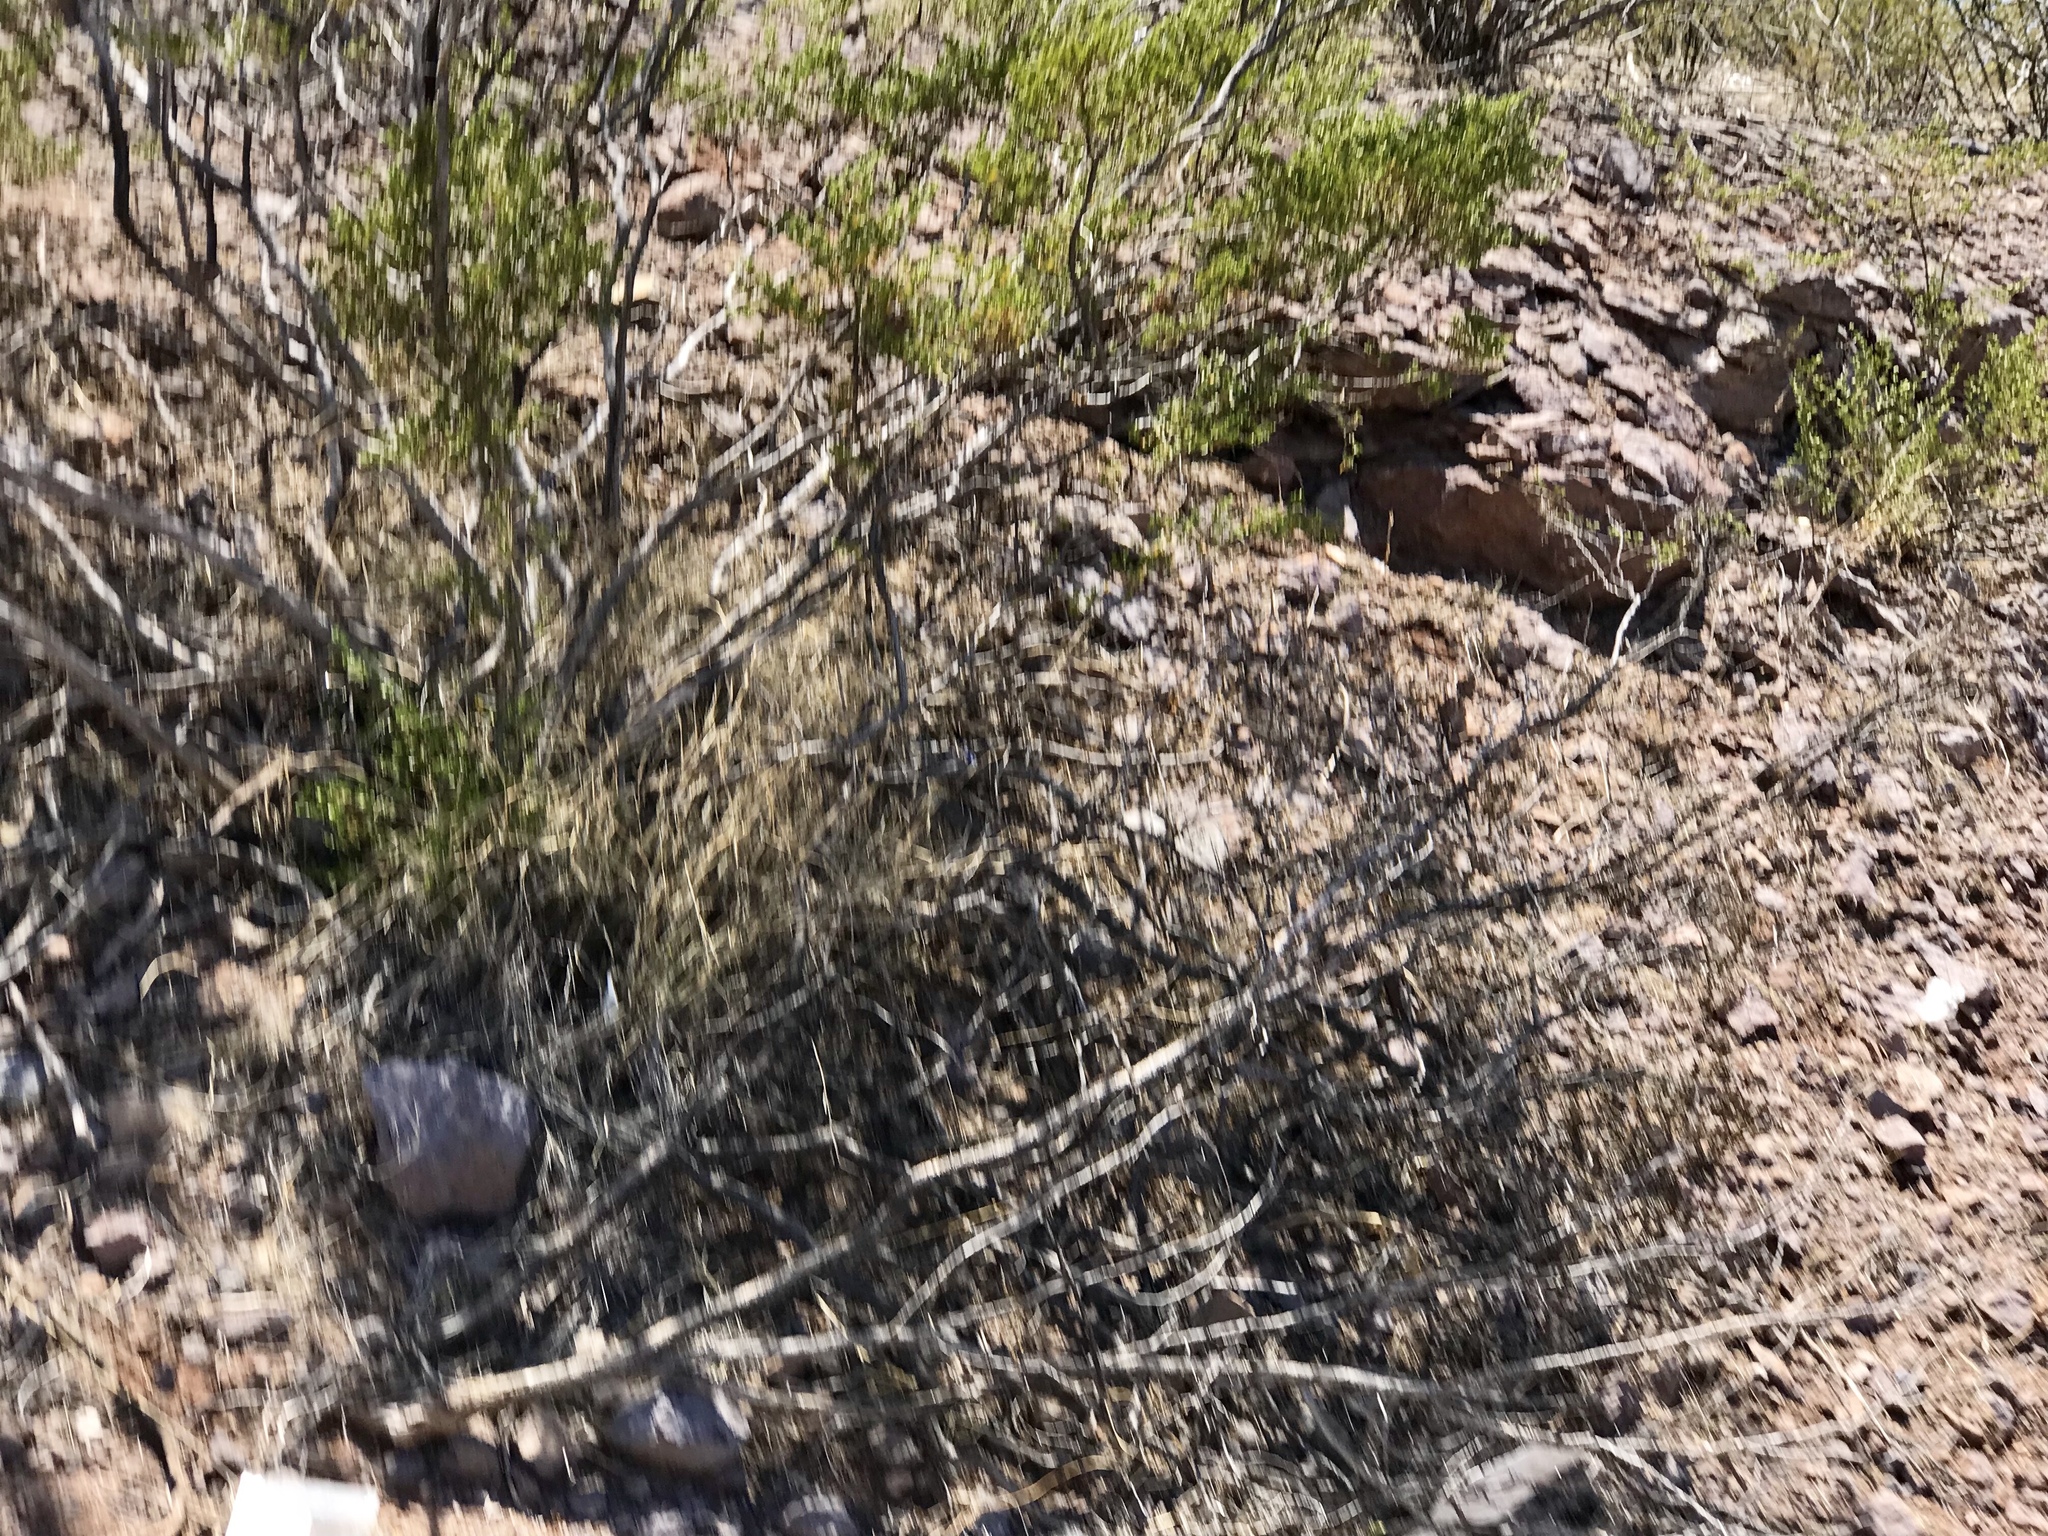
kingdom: Plantae
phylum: Tracheophyta
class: Magnoliopsida
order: Zygophyllales
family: Zygophyllaceae
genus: Larrea
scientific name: Larrea tridentata
